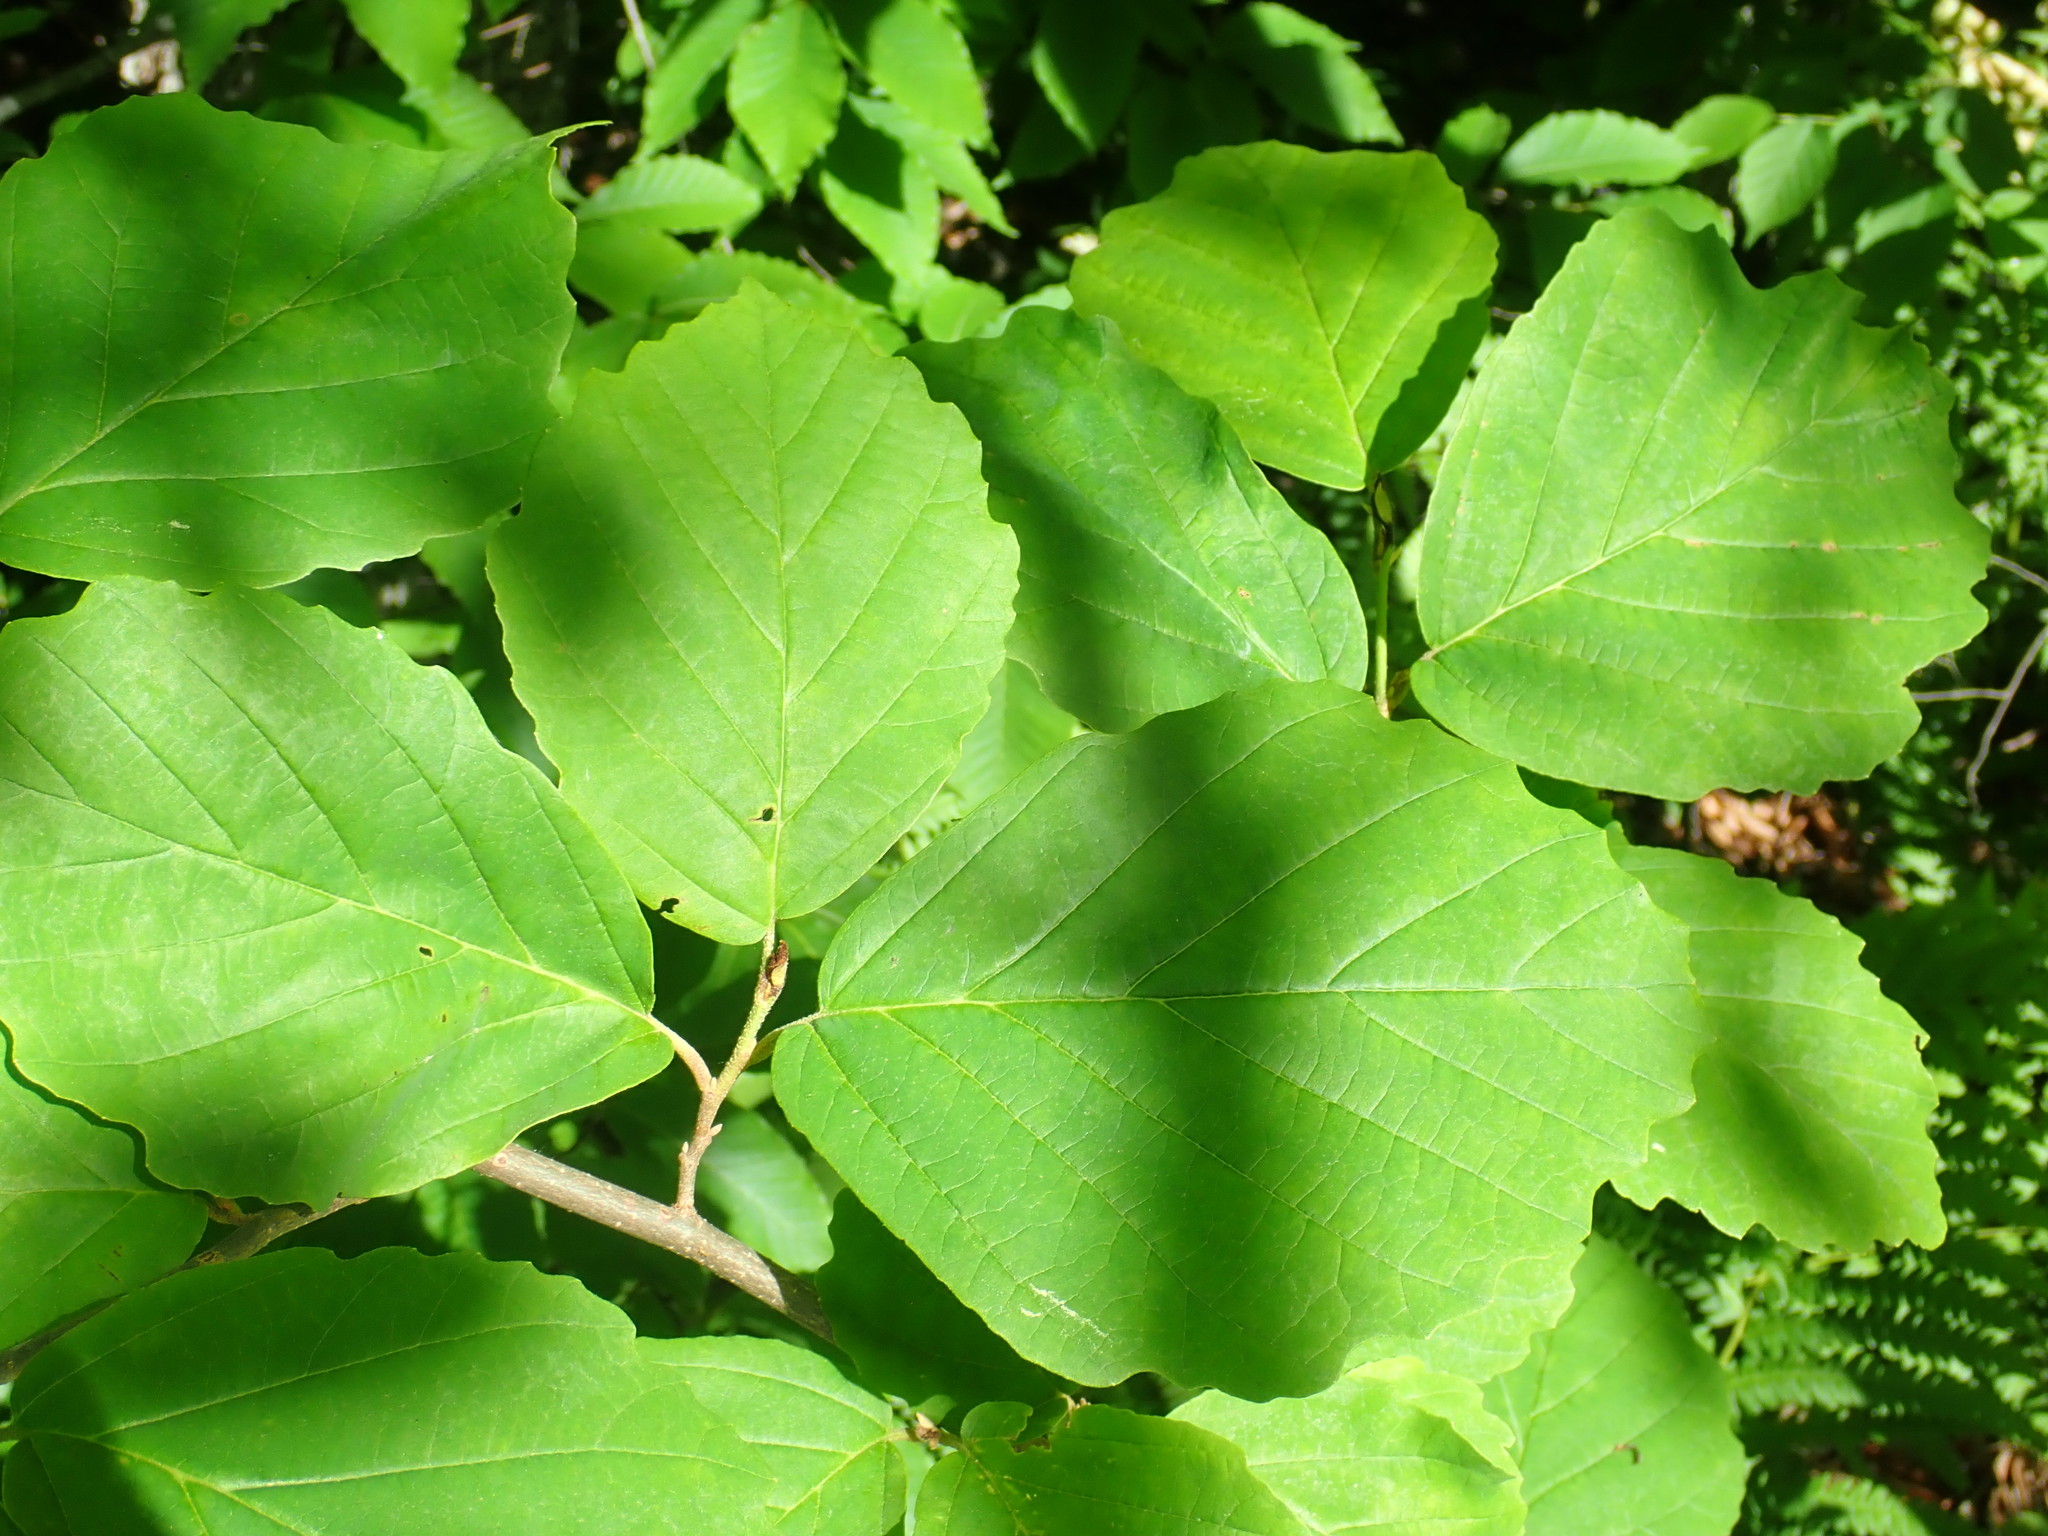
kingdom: Plantae
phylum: Tracheophyta
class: Magnoliopsida
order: Saxifragales
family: Hamamelidaceae
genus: Hamamelis
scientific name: Hamamelis virginiana
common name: Witch-hazel
